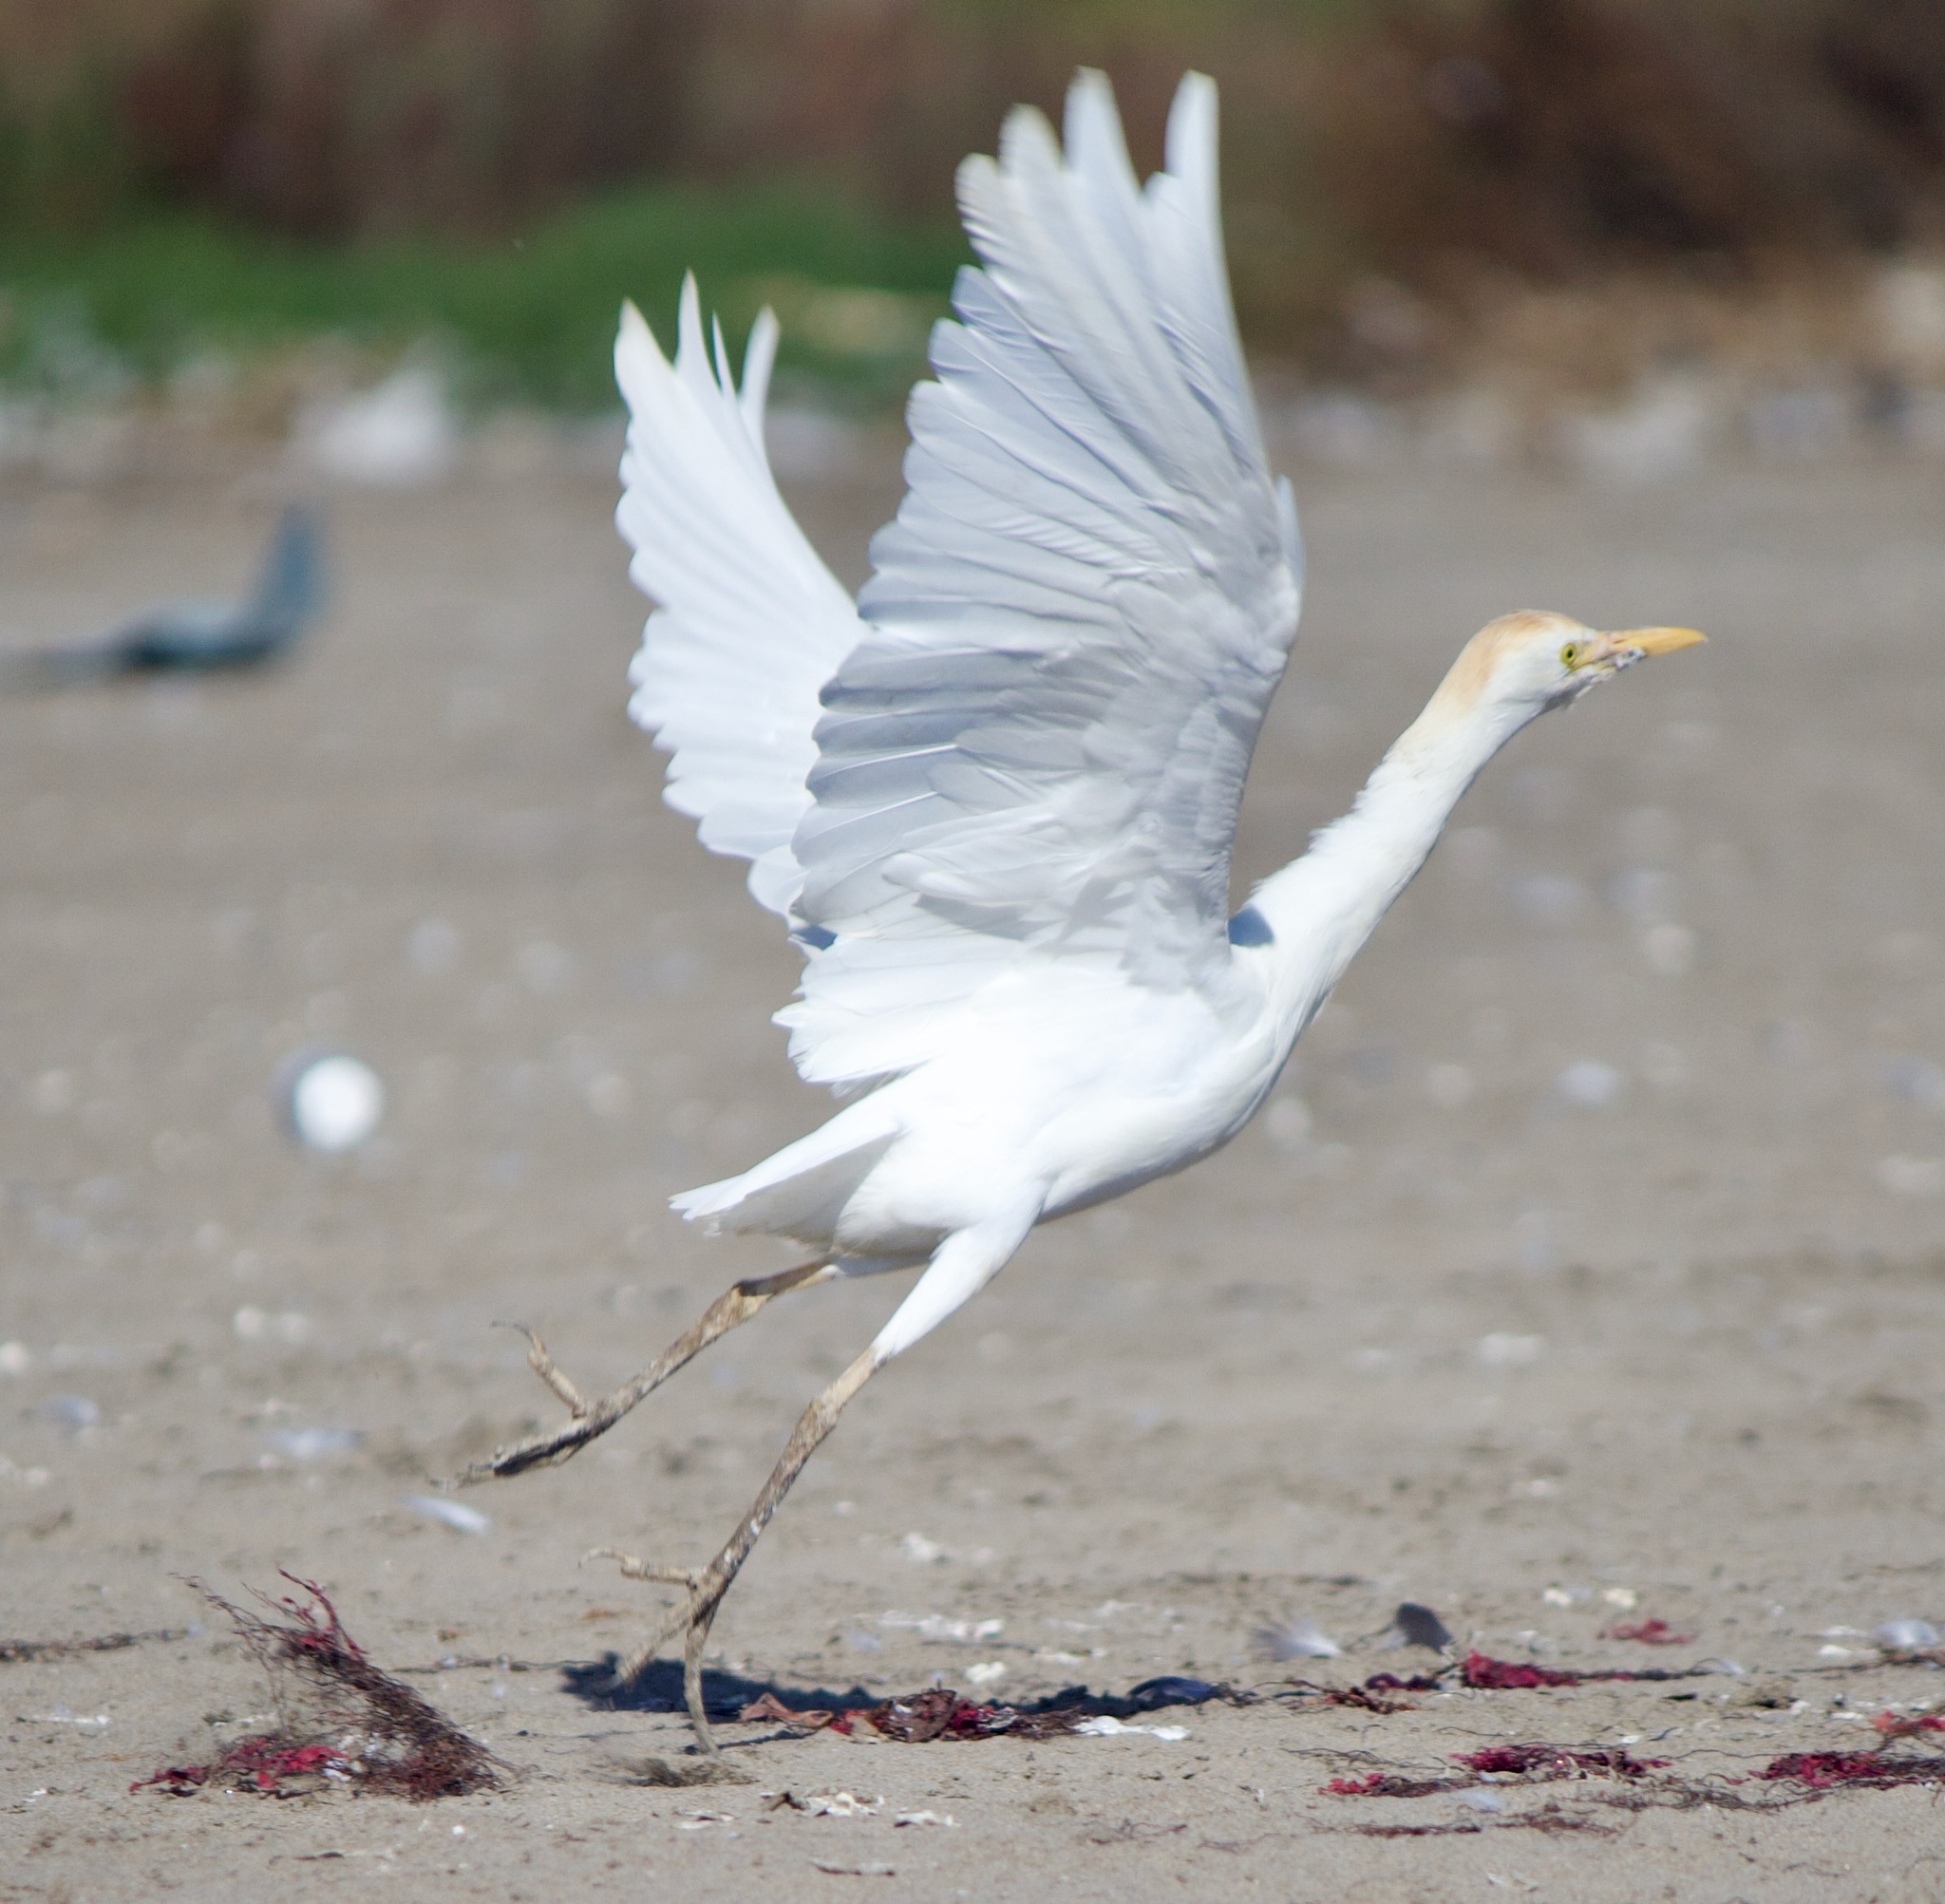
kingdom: Animalia
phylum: Chordata
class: Aves
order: Pelecaniformes
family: Ardeidae
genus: Bubulcus
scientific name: Bubulcus ibis
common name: Cattle egret
